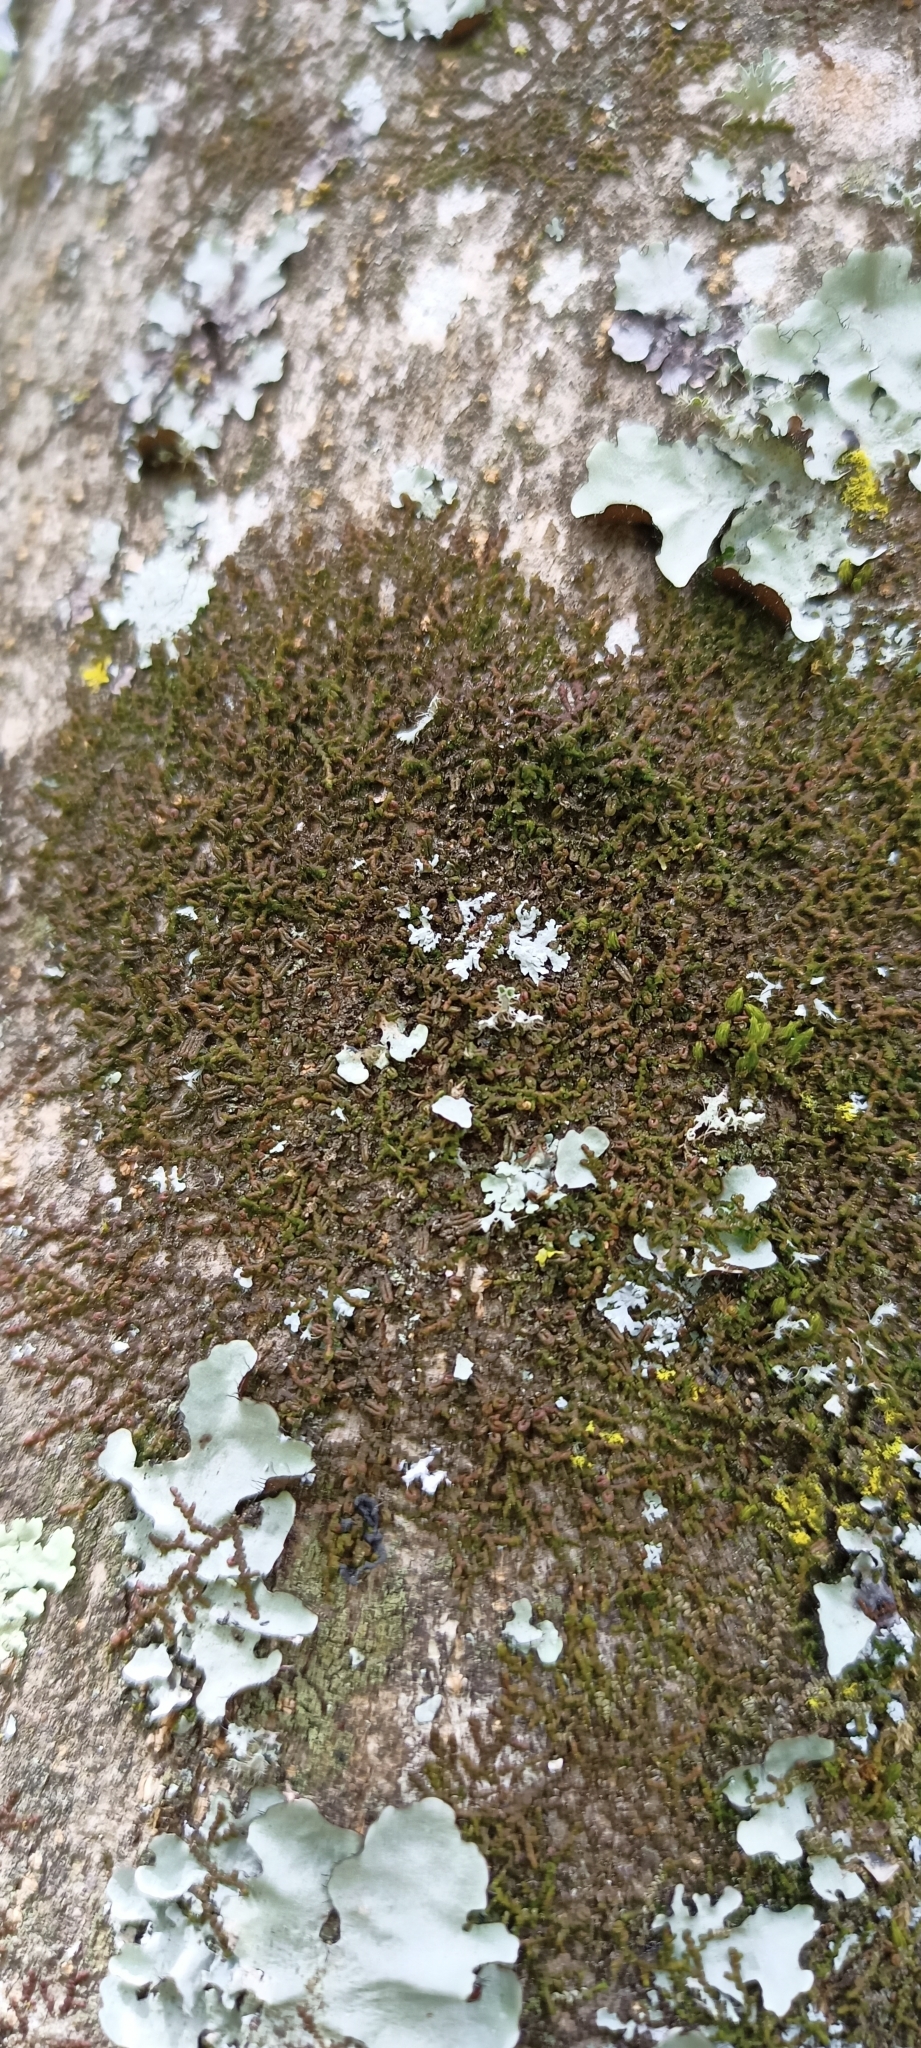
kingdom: Plantae
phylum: Marchantiophyta
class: Jungermanniopsida
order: Porellales
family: Frullaniaceae
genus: Frullania
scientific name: Frullania dilatata
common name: Dilated scalewort
